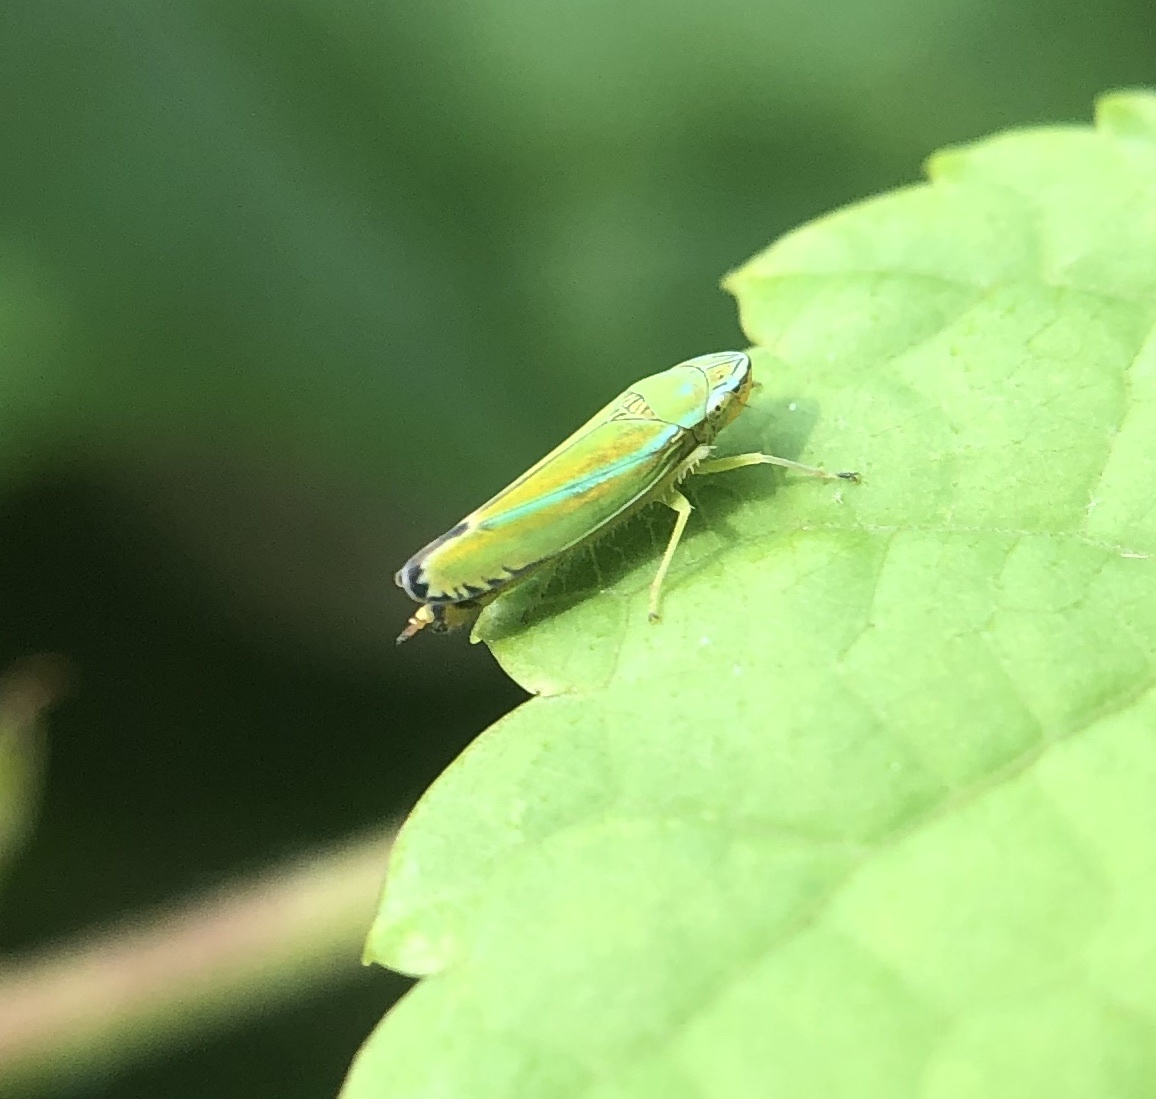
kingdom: Animalia
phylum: Arthropoda
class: Insecta
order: Hemiptera
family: Cicadellidae
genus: Graphocephala
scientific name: Graphocephala versuta
